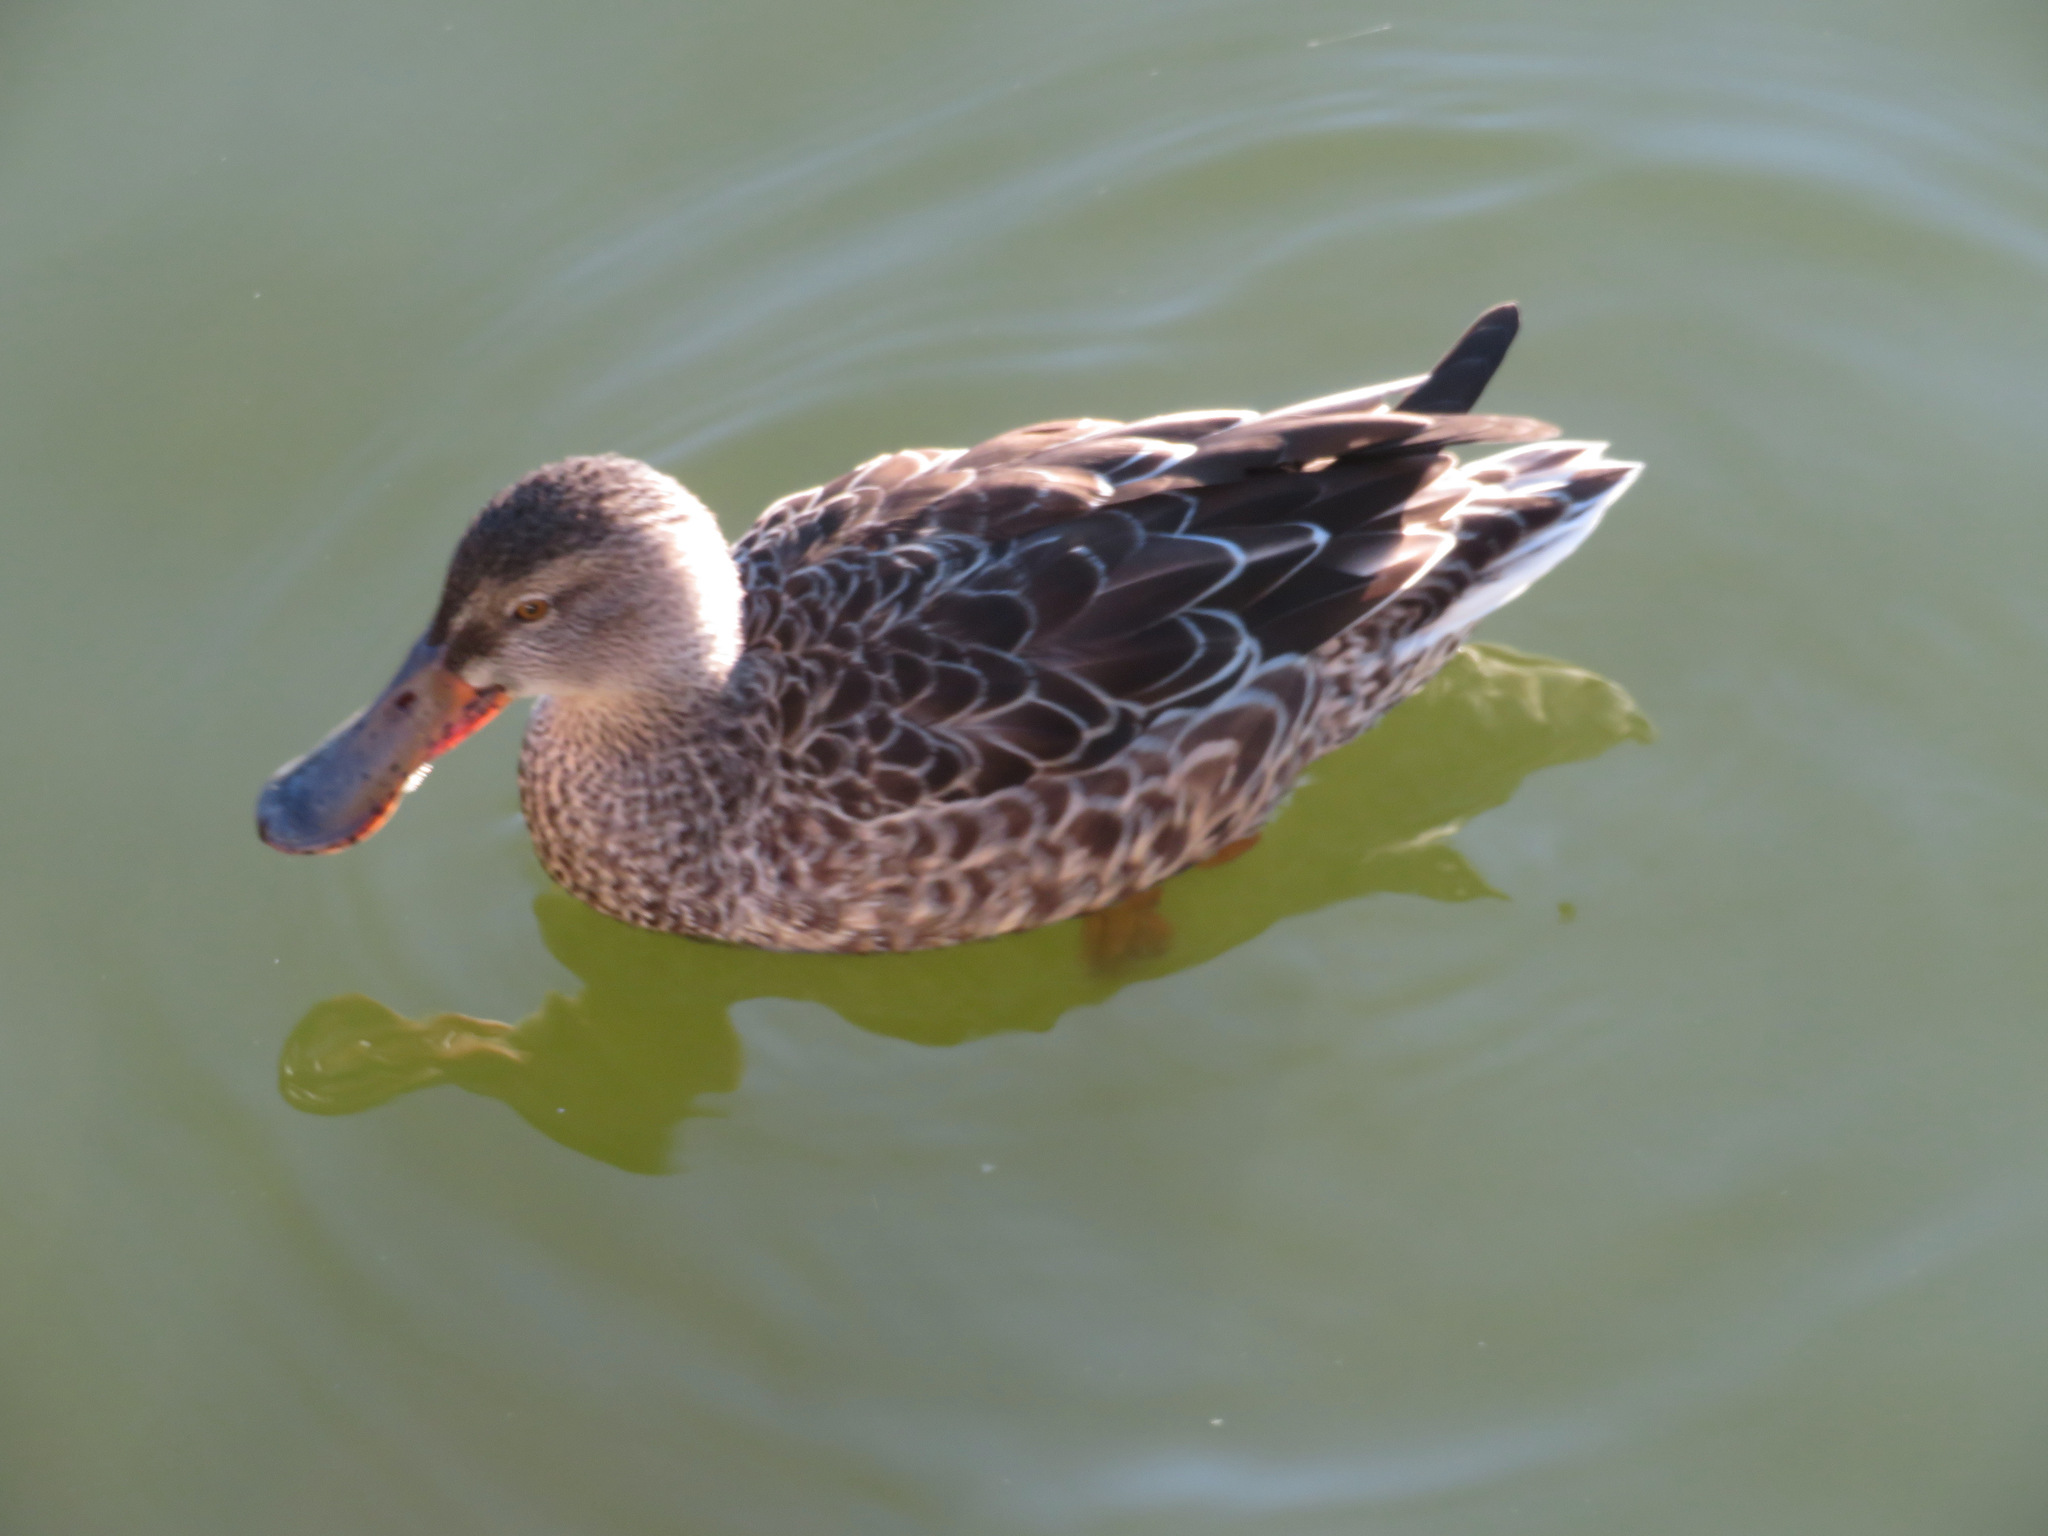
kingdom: Animalia
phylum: Chordata
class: Aves
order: Anseriformes
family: Anatidae
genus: Spatula
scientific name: Spatula clypeata
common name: Northern shoveler
